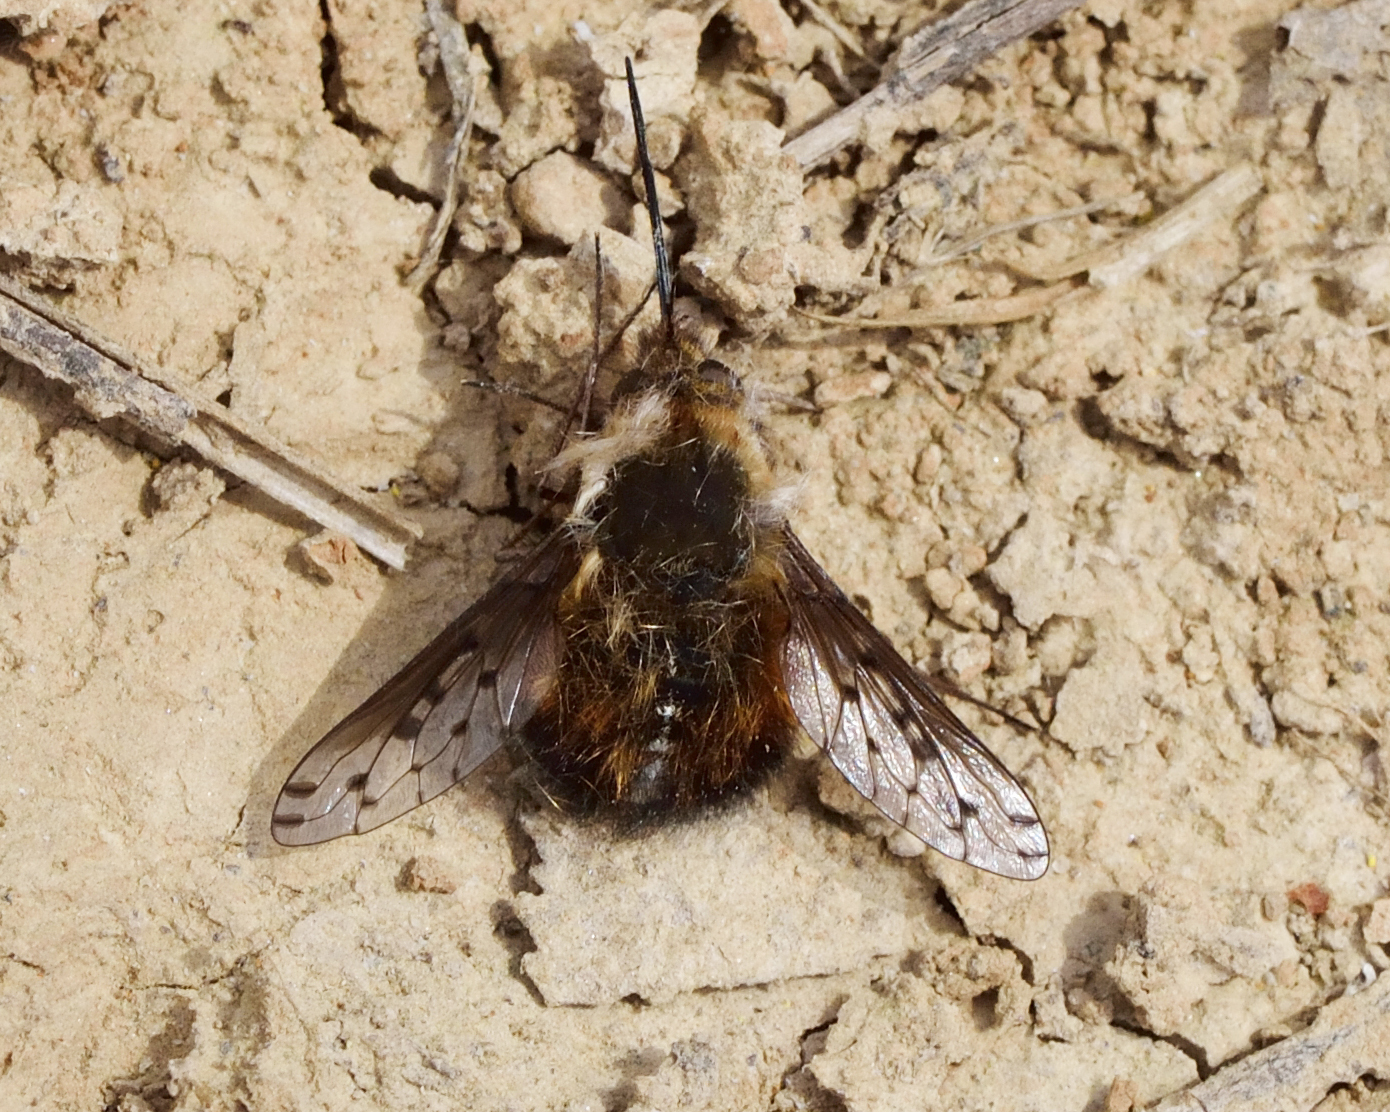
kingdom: Animalia
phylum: Arthropoda
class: Insecta
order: Diptera
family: Bombyliidae
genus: Bombylius
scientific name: Bombylius discolor
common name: Dotted bee-fly
